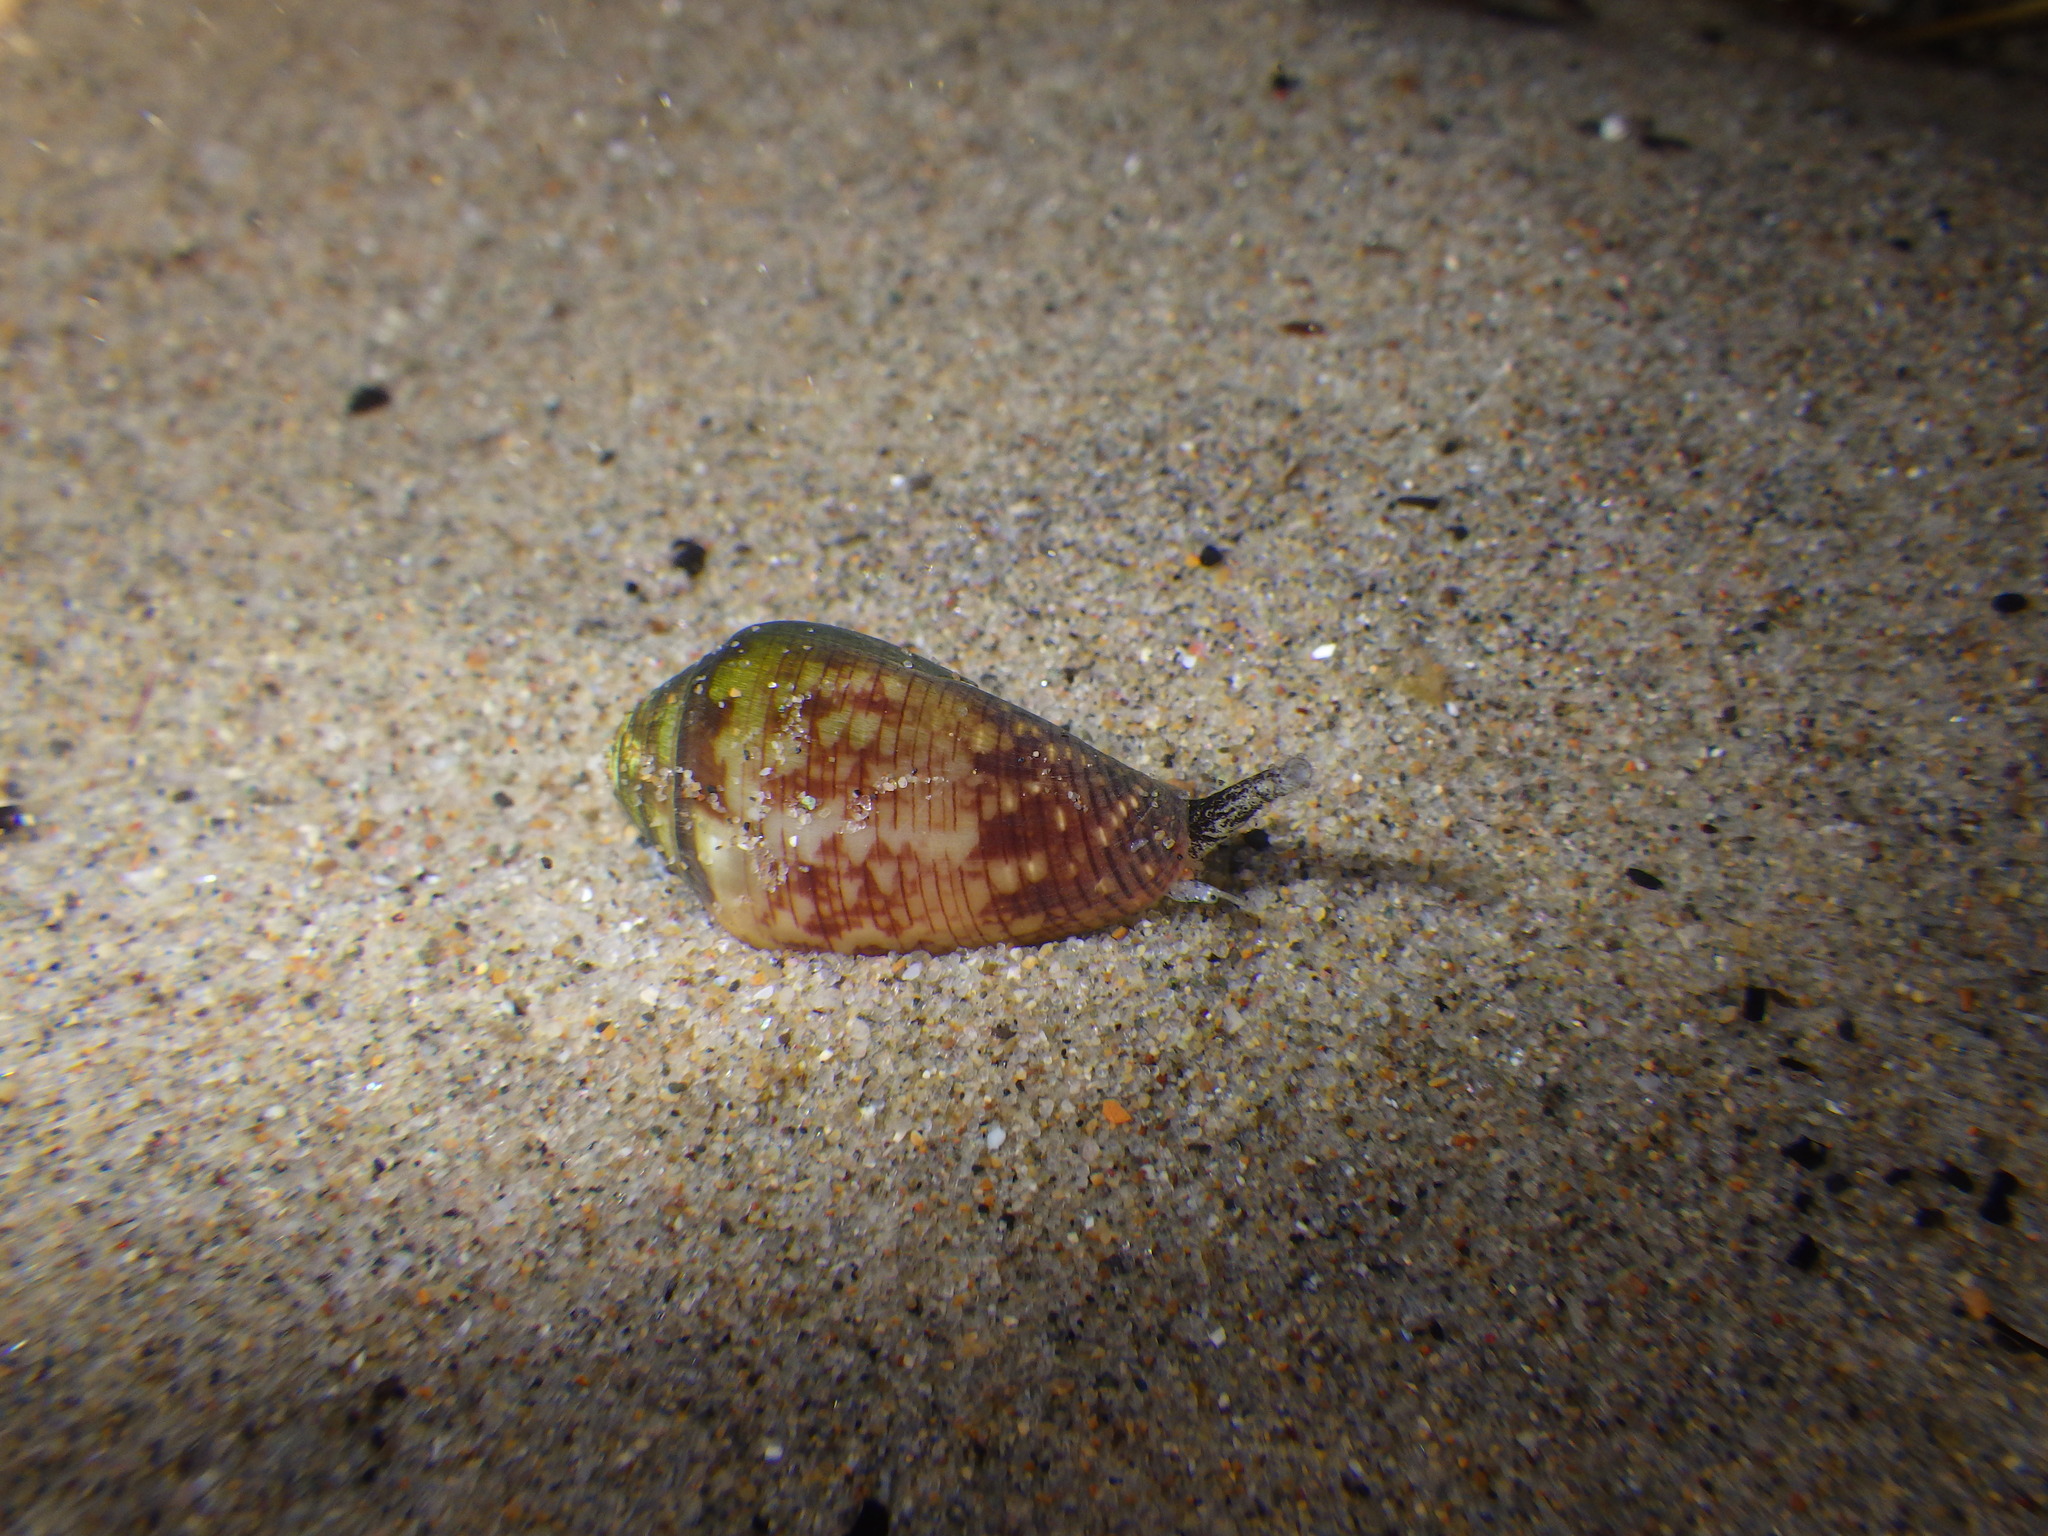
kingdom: Animalia
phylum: Mollusca
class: Gastropoda
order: Neogastropoda
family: Conidae
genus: Californiconus
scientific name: Californiconus californicus
